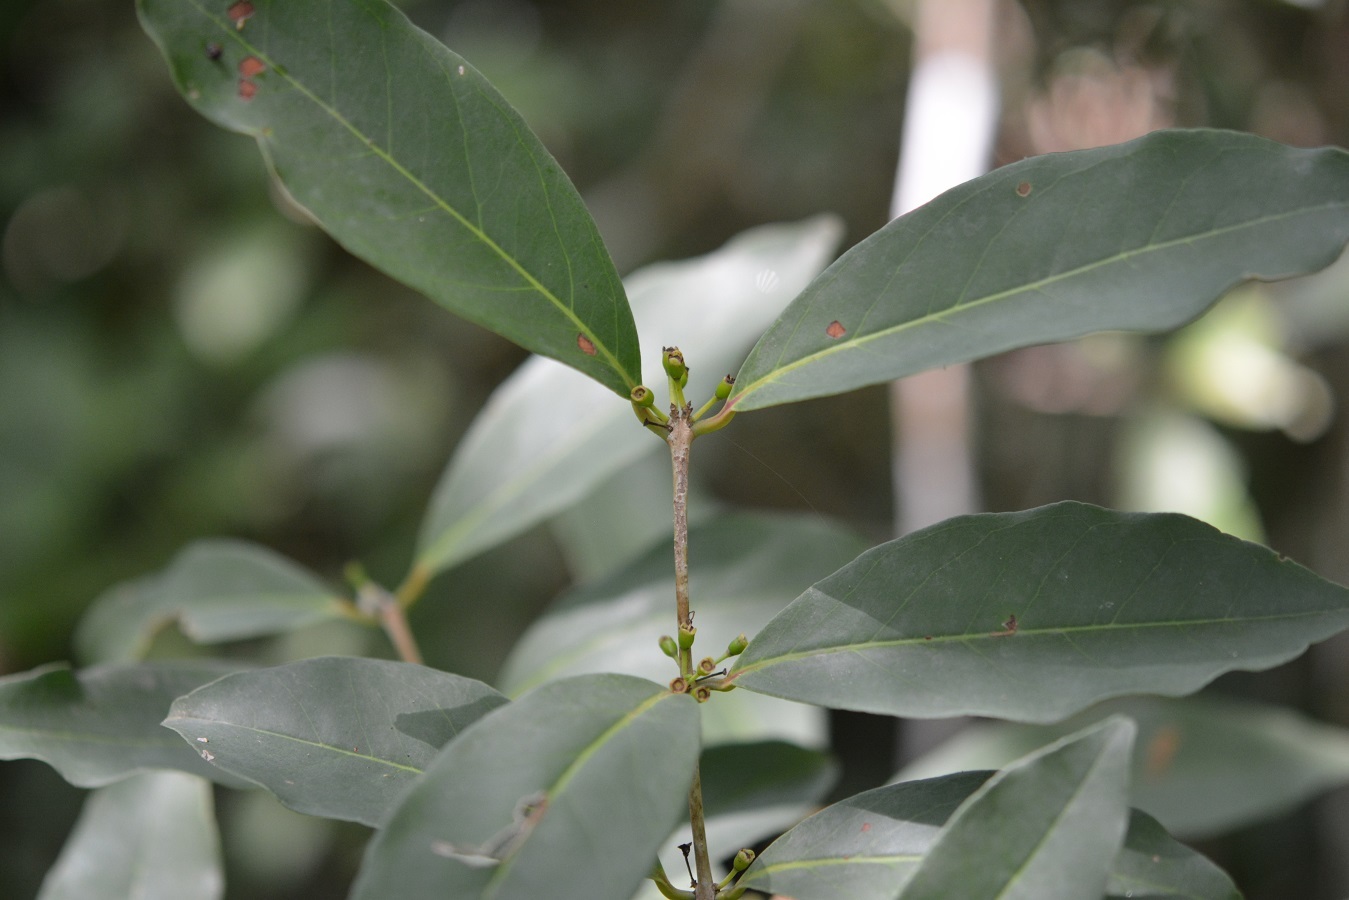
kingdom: Plantae
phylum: Tracheophyta
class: Magnoliopsida
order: Myrtales
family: Myrtaceae
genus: Eugenia
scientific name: Eugenia choapamensis
